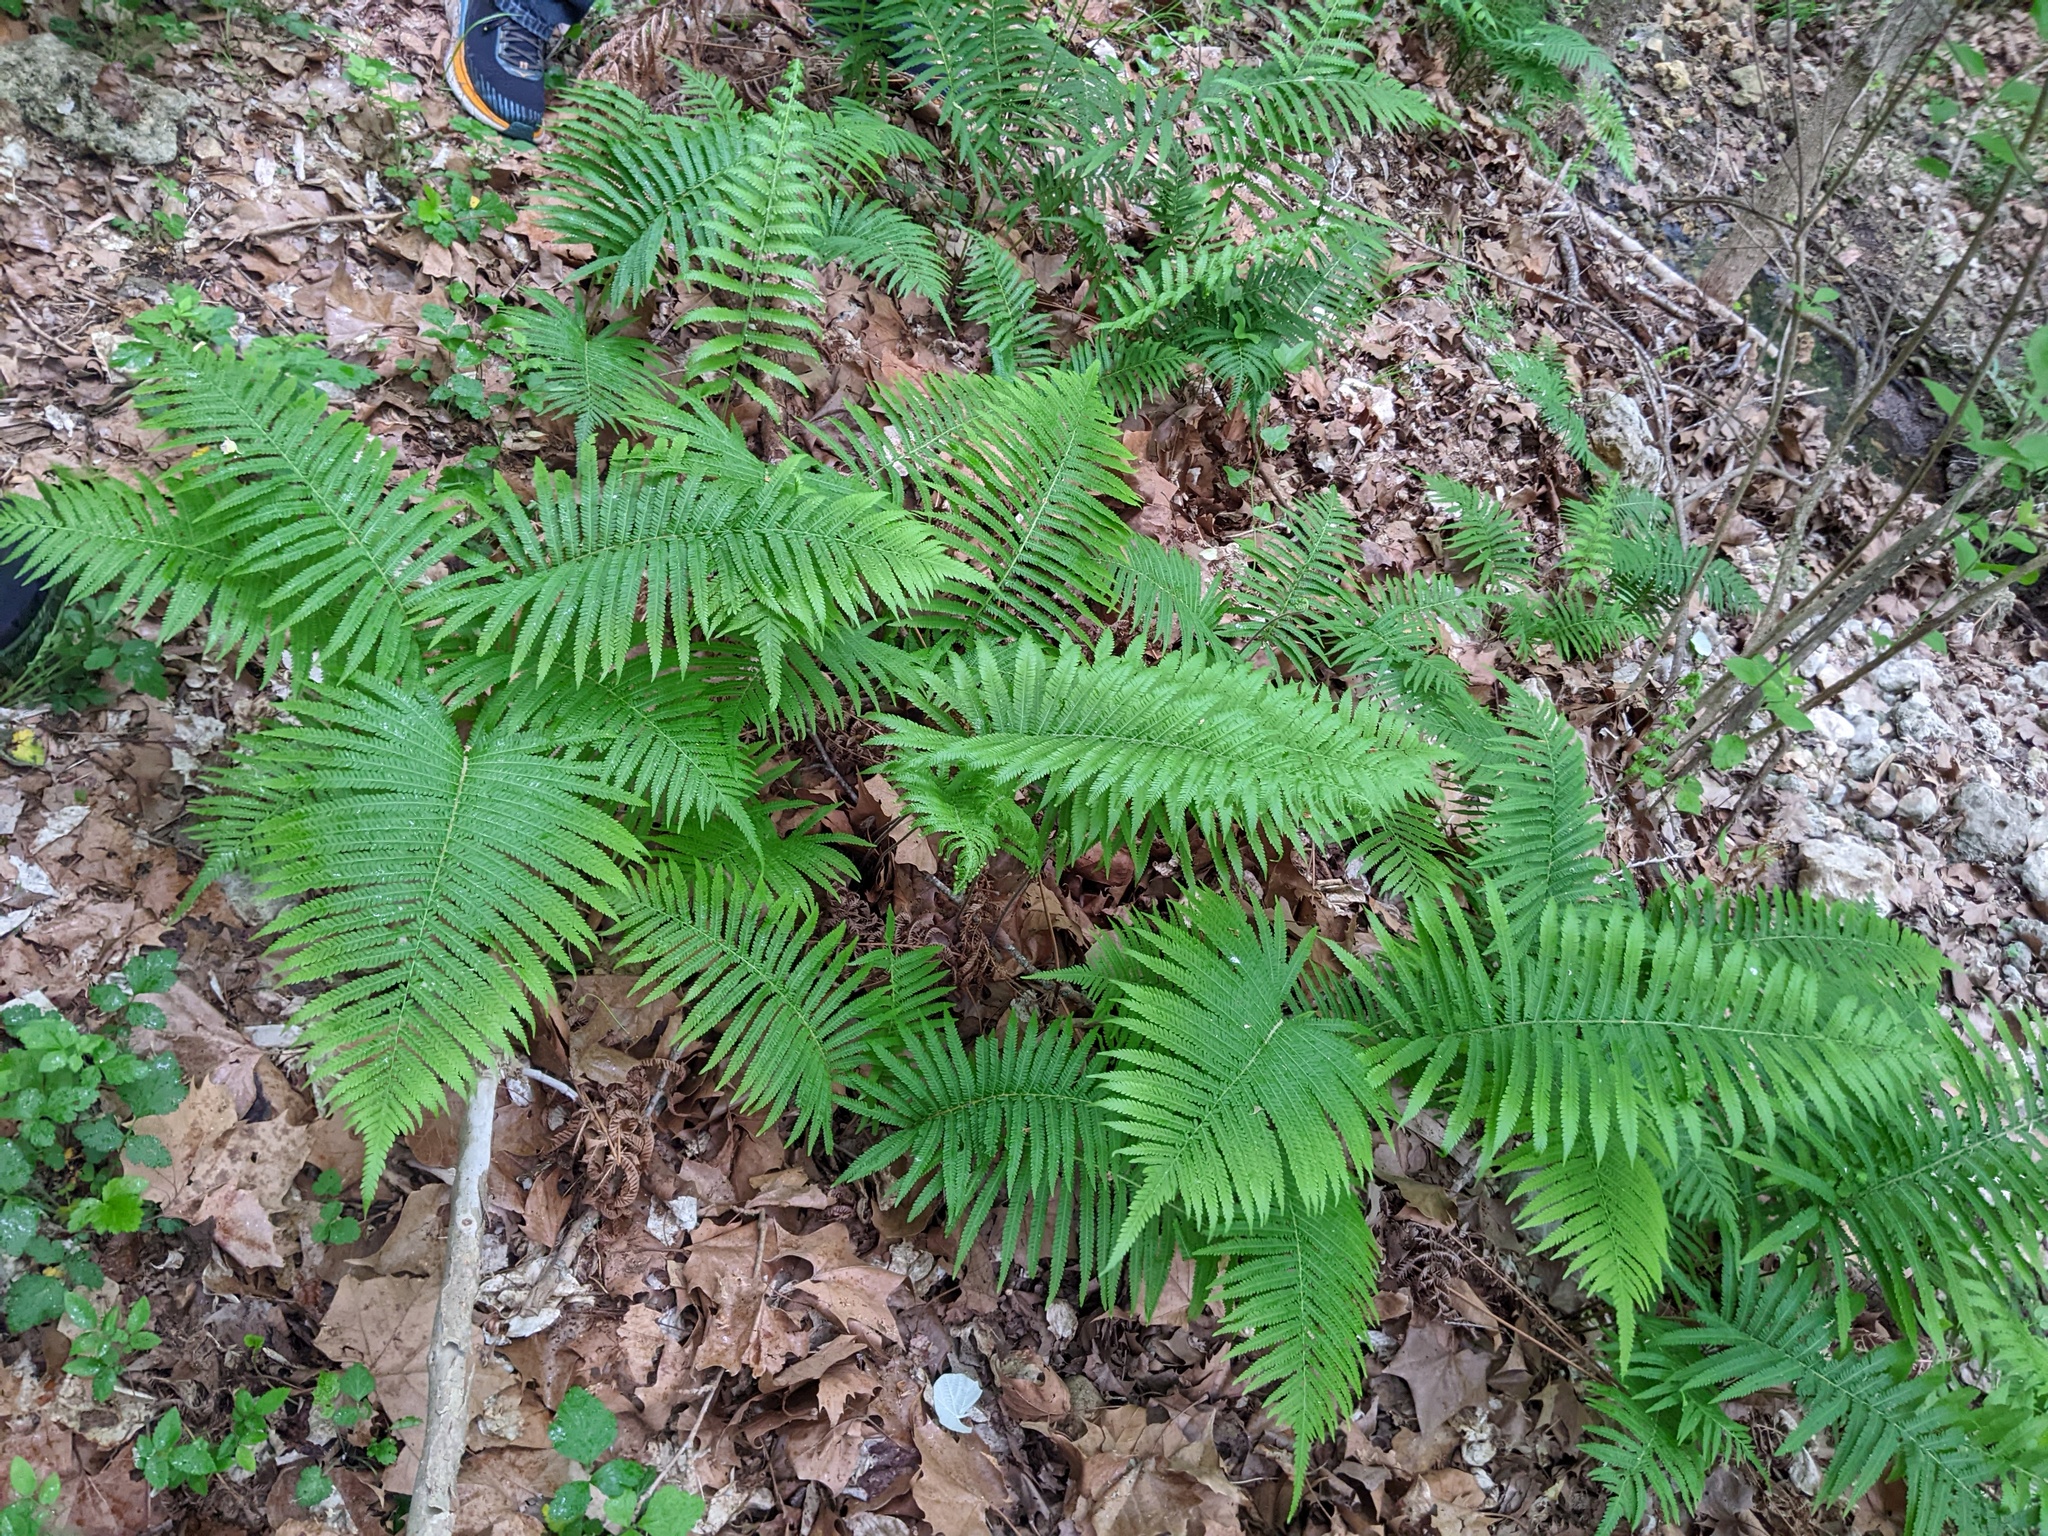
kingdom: Plantae
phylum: Tracheophyta
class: Polypodiopsida
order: Polypodiales
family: Thelypteridaceae
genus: Pelazoneuron
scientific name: Pelazoneuron ovatum
